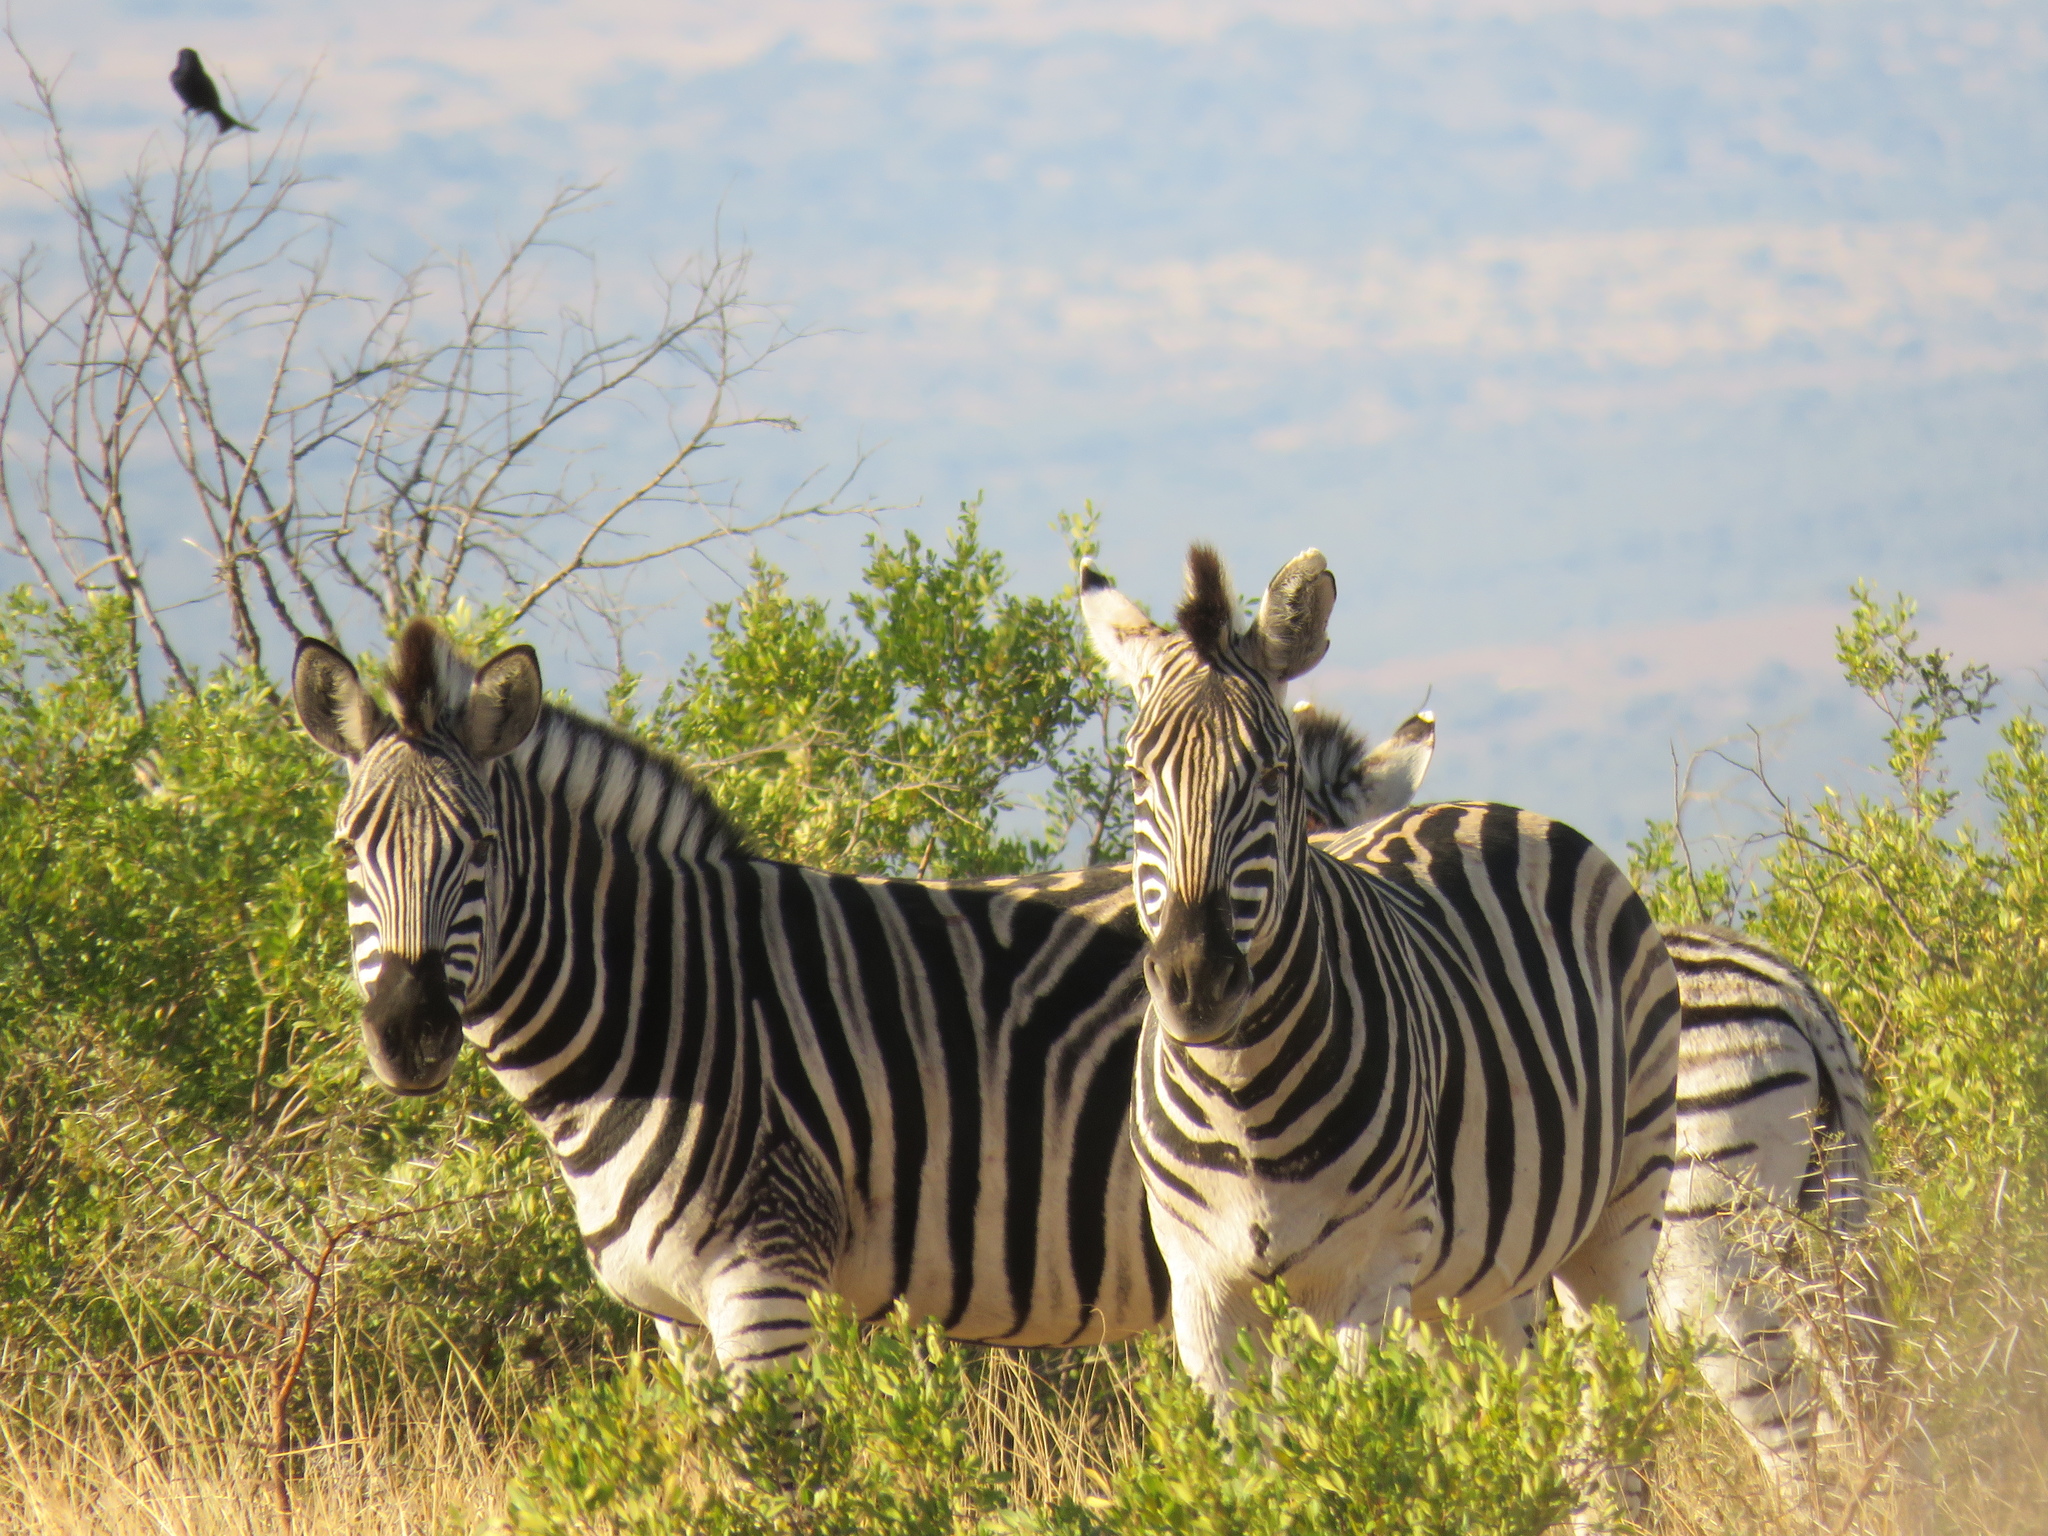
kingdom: Animalia
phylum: Chordata
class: Mammalia
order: Perissodactyla
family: Equidae
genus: Equus
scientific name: Equus quagga
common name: Plains zebra
